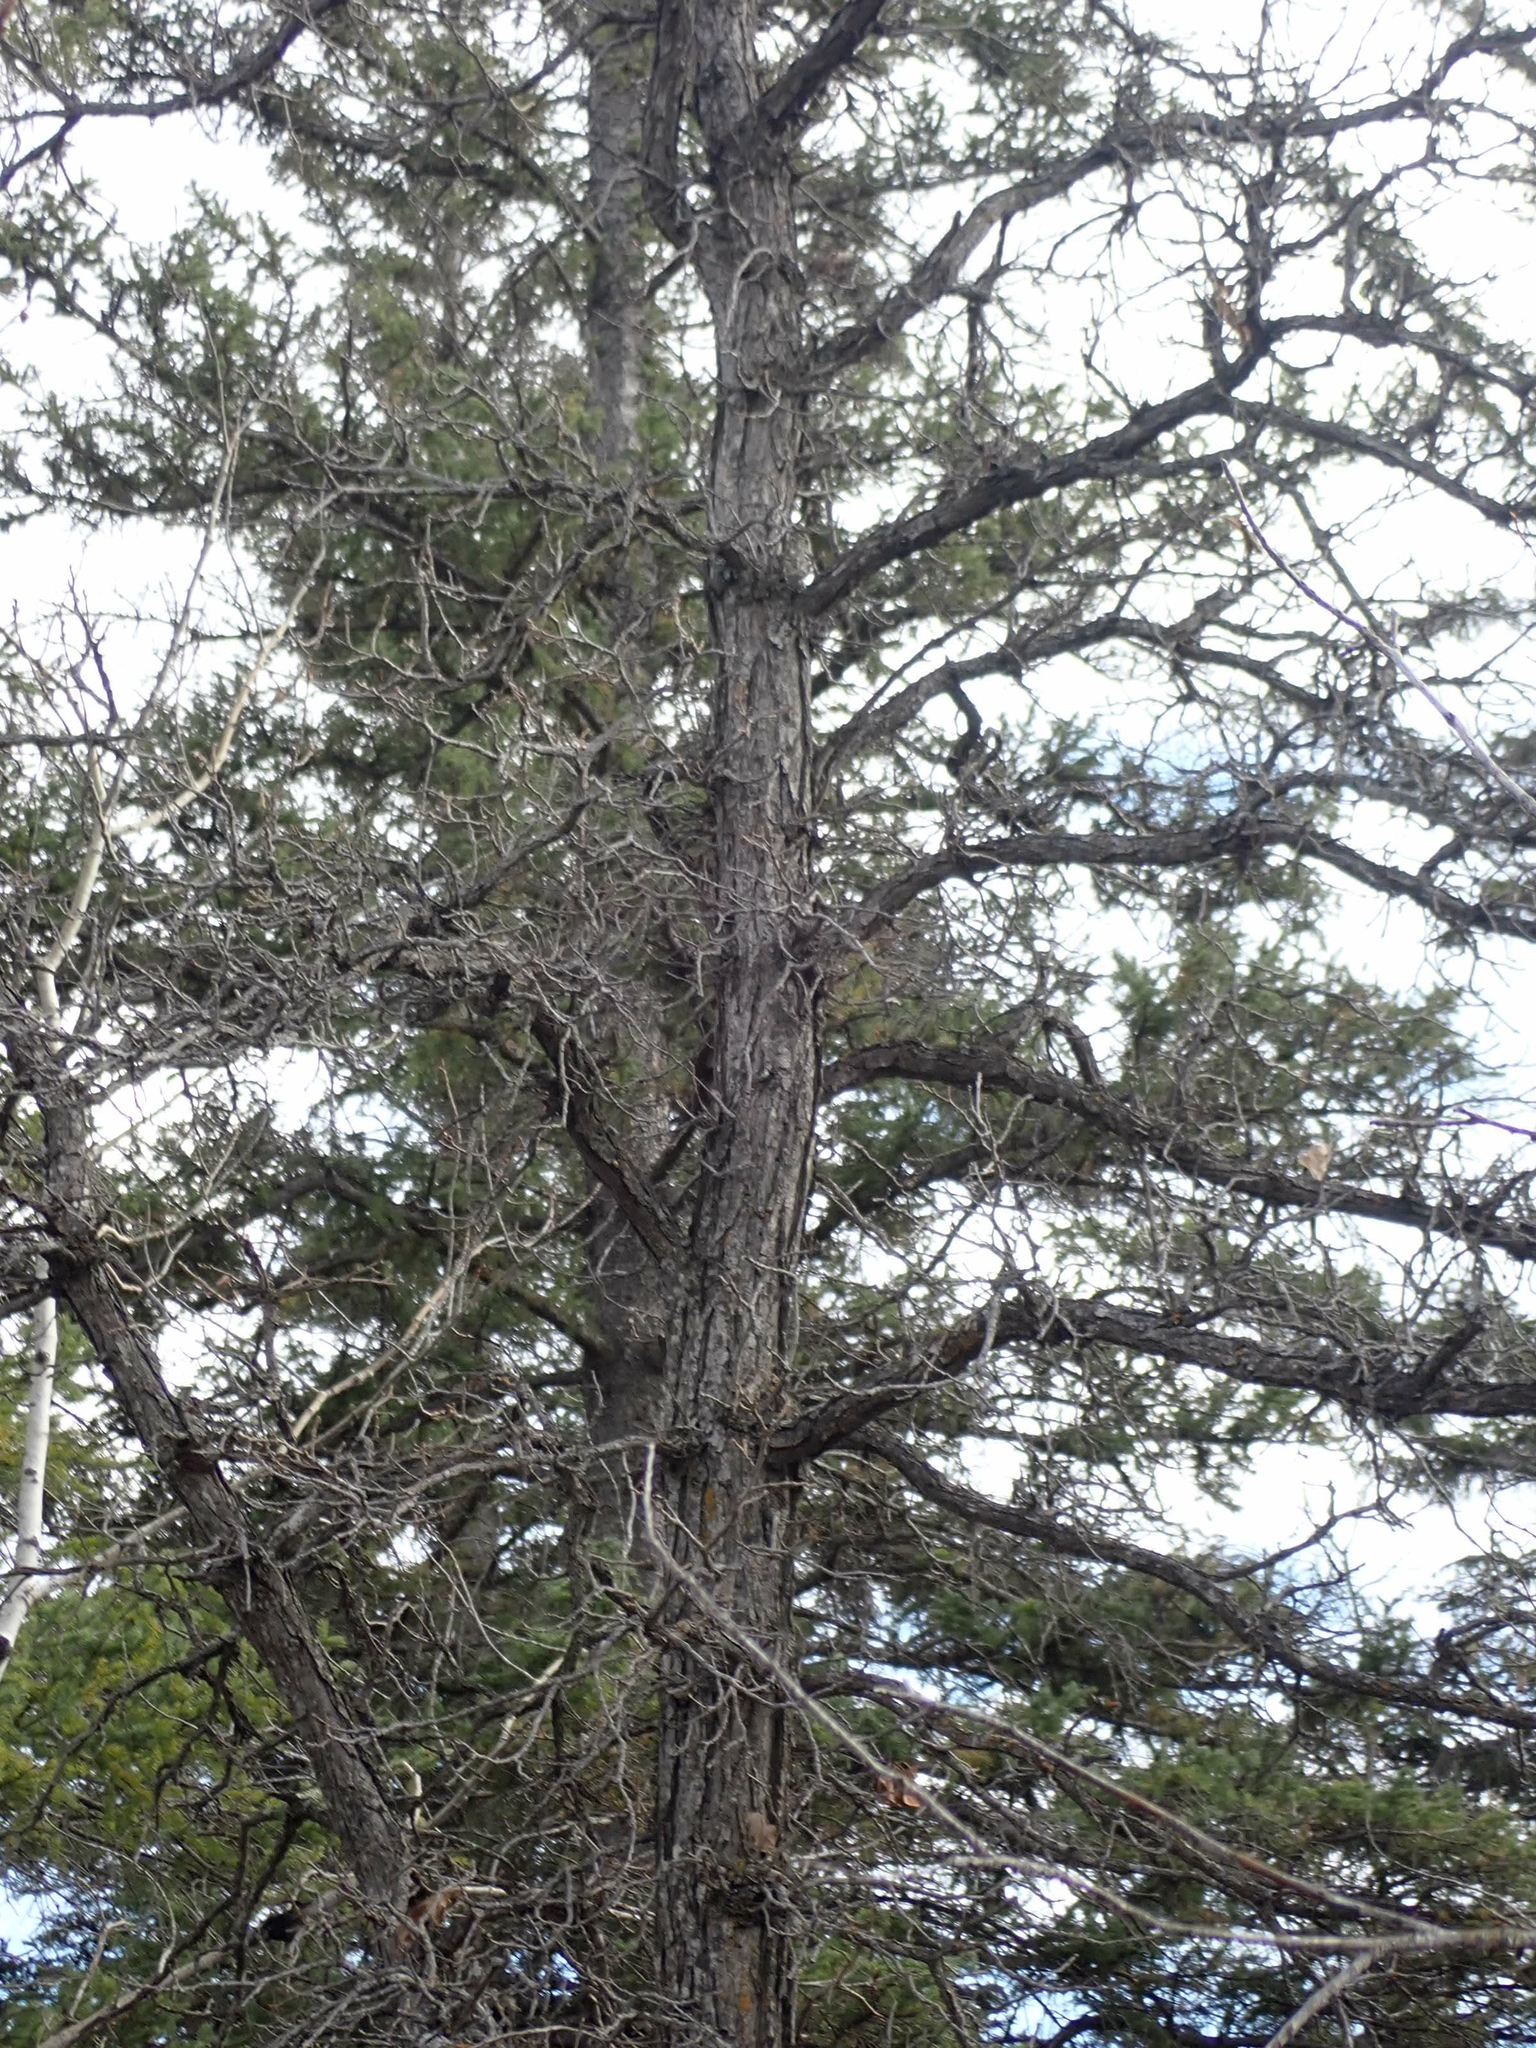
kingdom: Plantae
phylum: Tracheophyta
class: Magnoliopsida
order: Fagales
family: Fagaceae
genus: Quercus
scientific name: Quercus macrocarpa
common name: Bur oak
